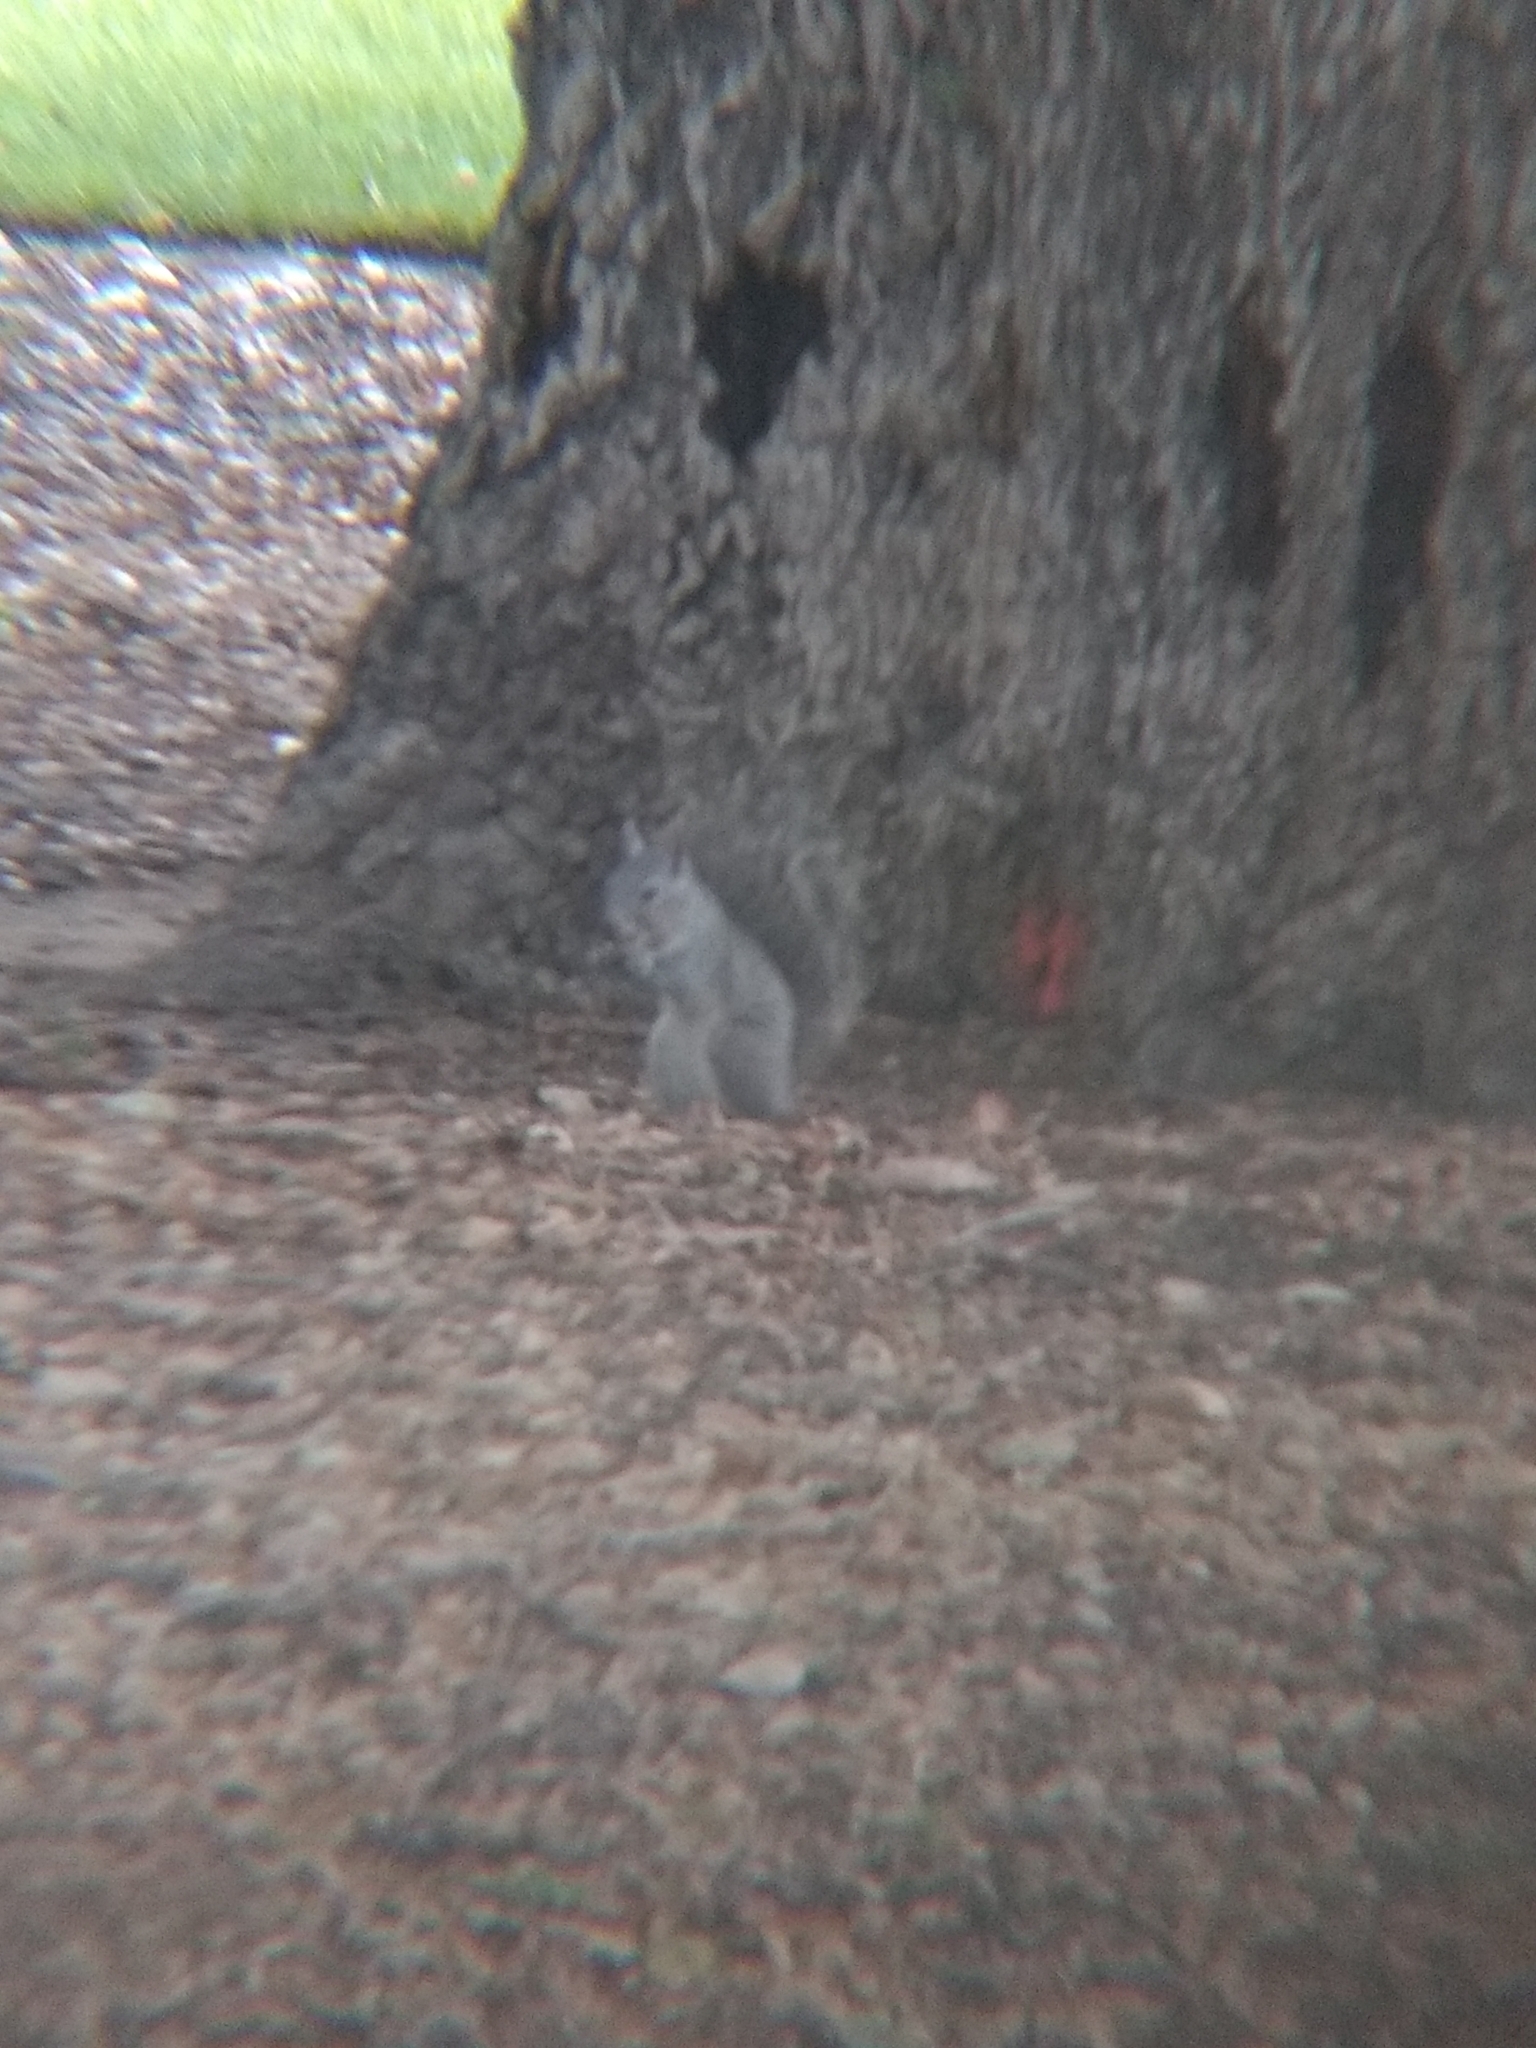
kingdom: Animalia
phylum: Chordata
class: Mammalia
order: Rodentia
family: Sciuridae
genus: Sciurus
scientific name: Sciurus griseus
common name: Western gray squirrel
